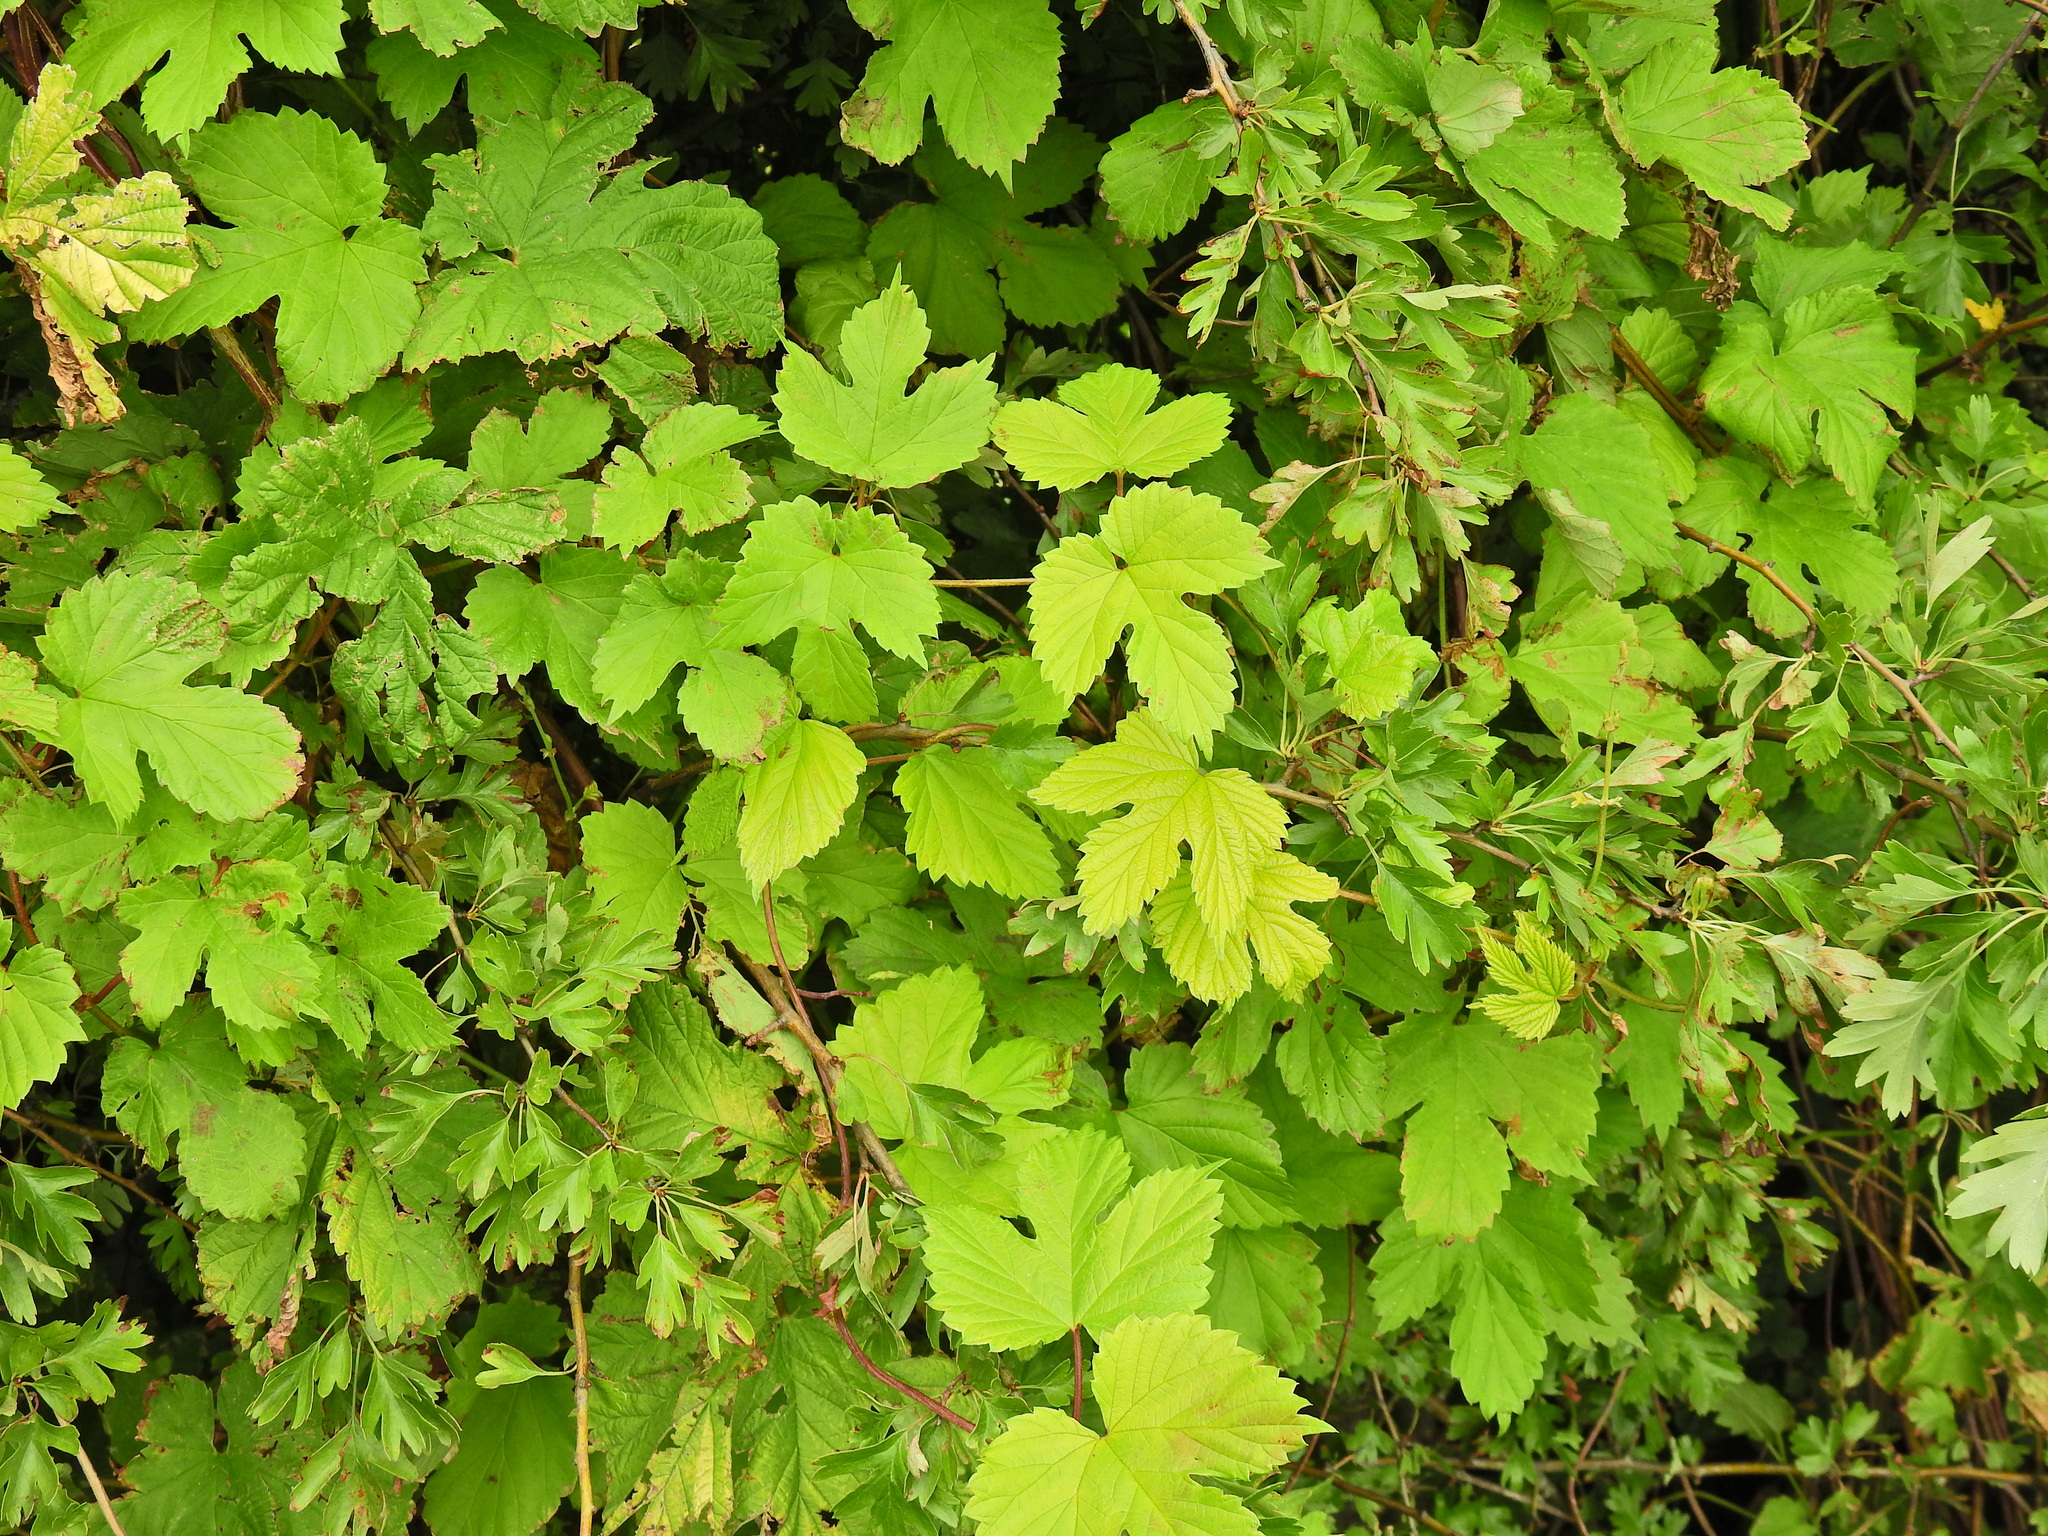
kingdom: Plantae
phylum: Tracheophyta
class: Magnoliopsida
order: Rosales
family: Cannabaceae
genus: Humulus
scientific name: Humulus lupulus
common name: Hop
